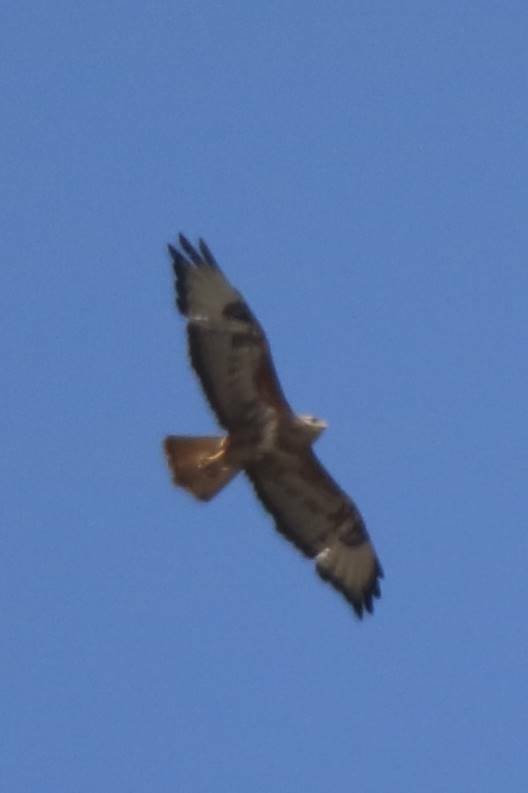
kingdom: Animalia
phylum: Chordata
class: Aves
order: Accipitriformes
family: Accipitridae
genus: Buteo
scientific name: Buteo rufinus
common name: Long-legged buzzard
